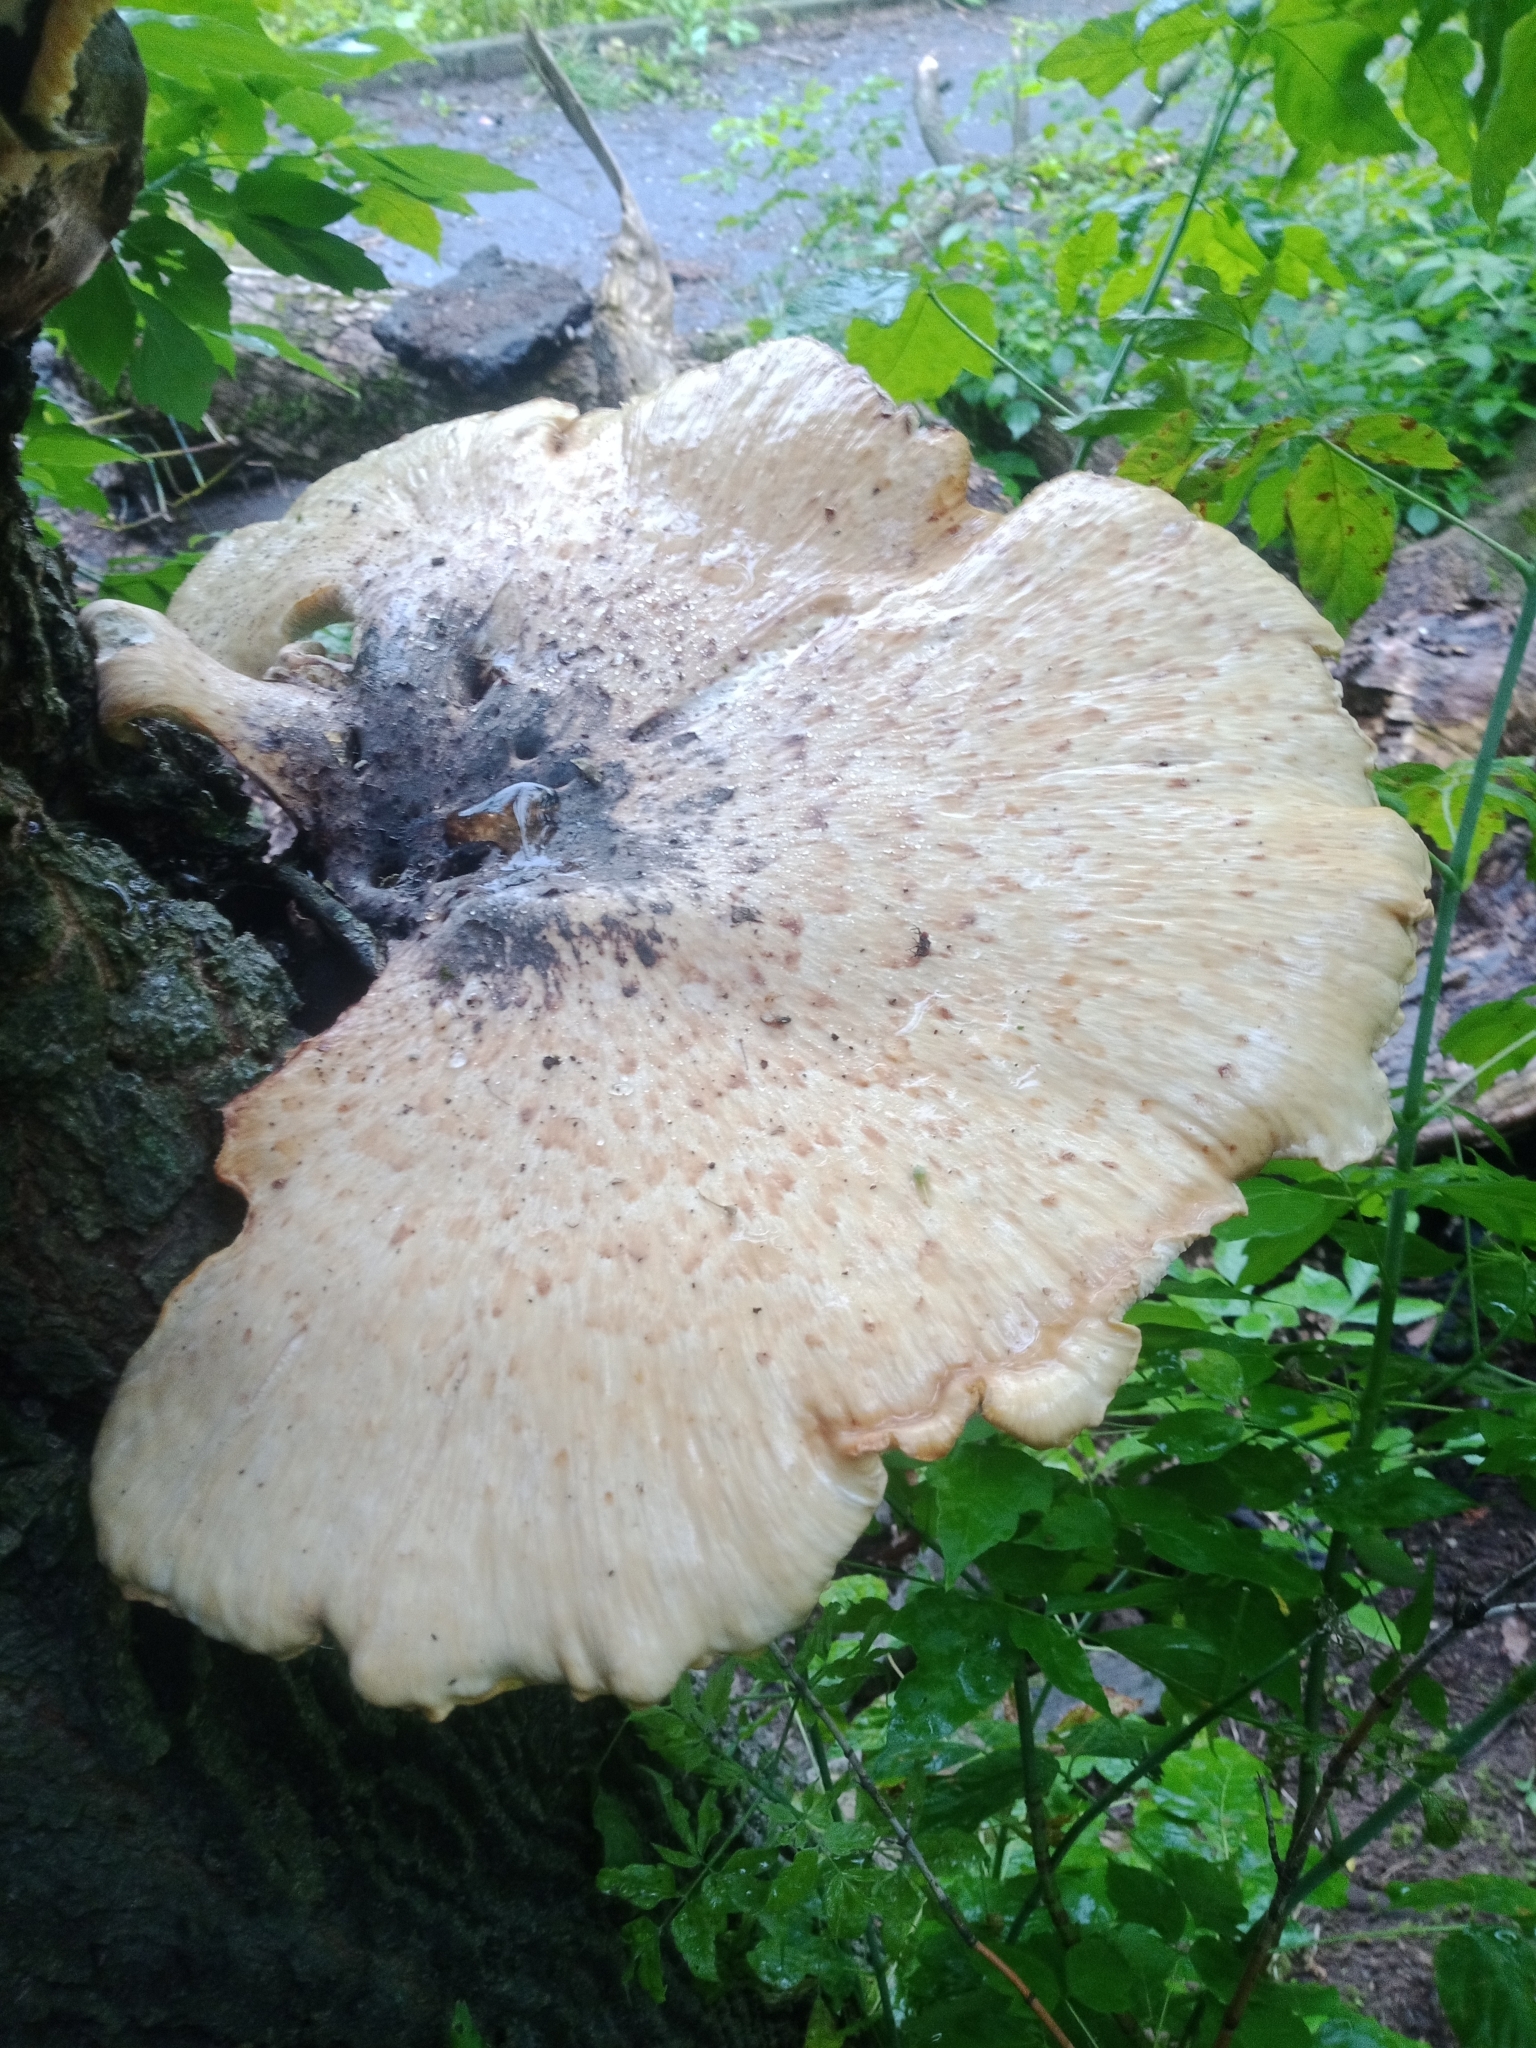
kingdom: Fungi
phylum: Basidiomycota
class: Agaricomycetes
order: Polyporales
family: Polyporaceae
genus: Cerioporus
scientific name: Cerioporus squamosus
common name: Dryad's saddle
